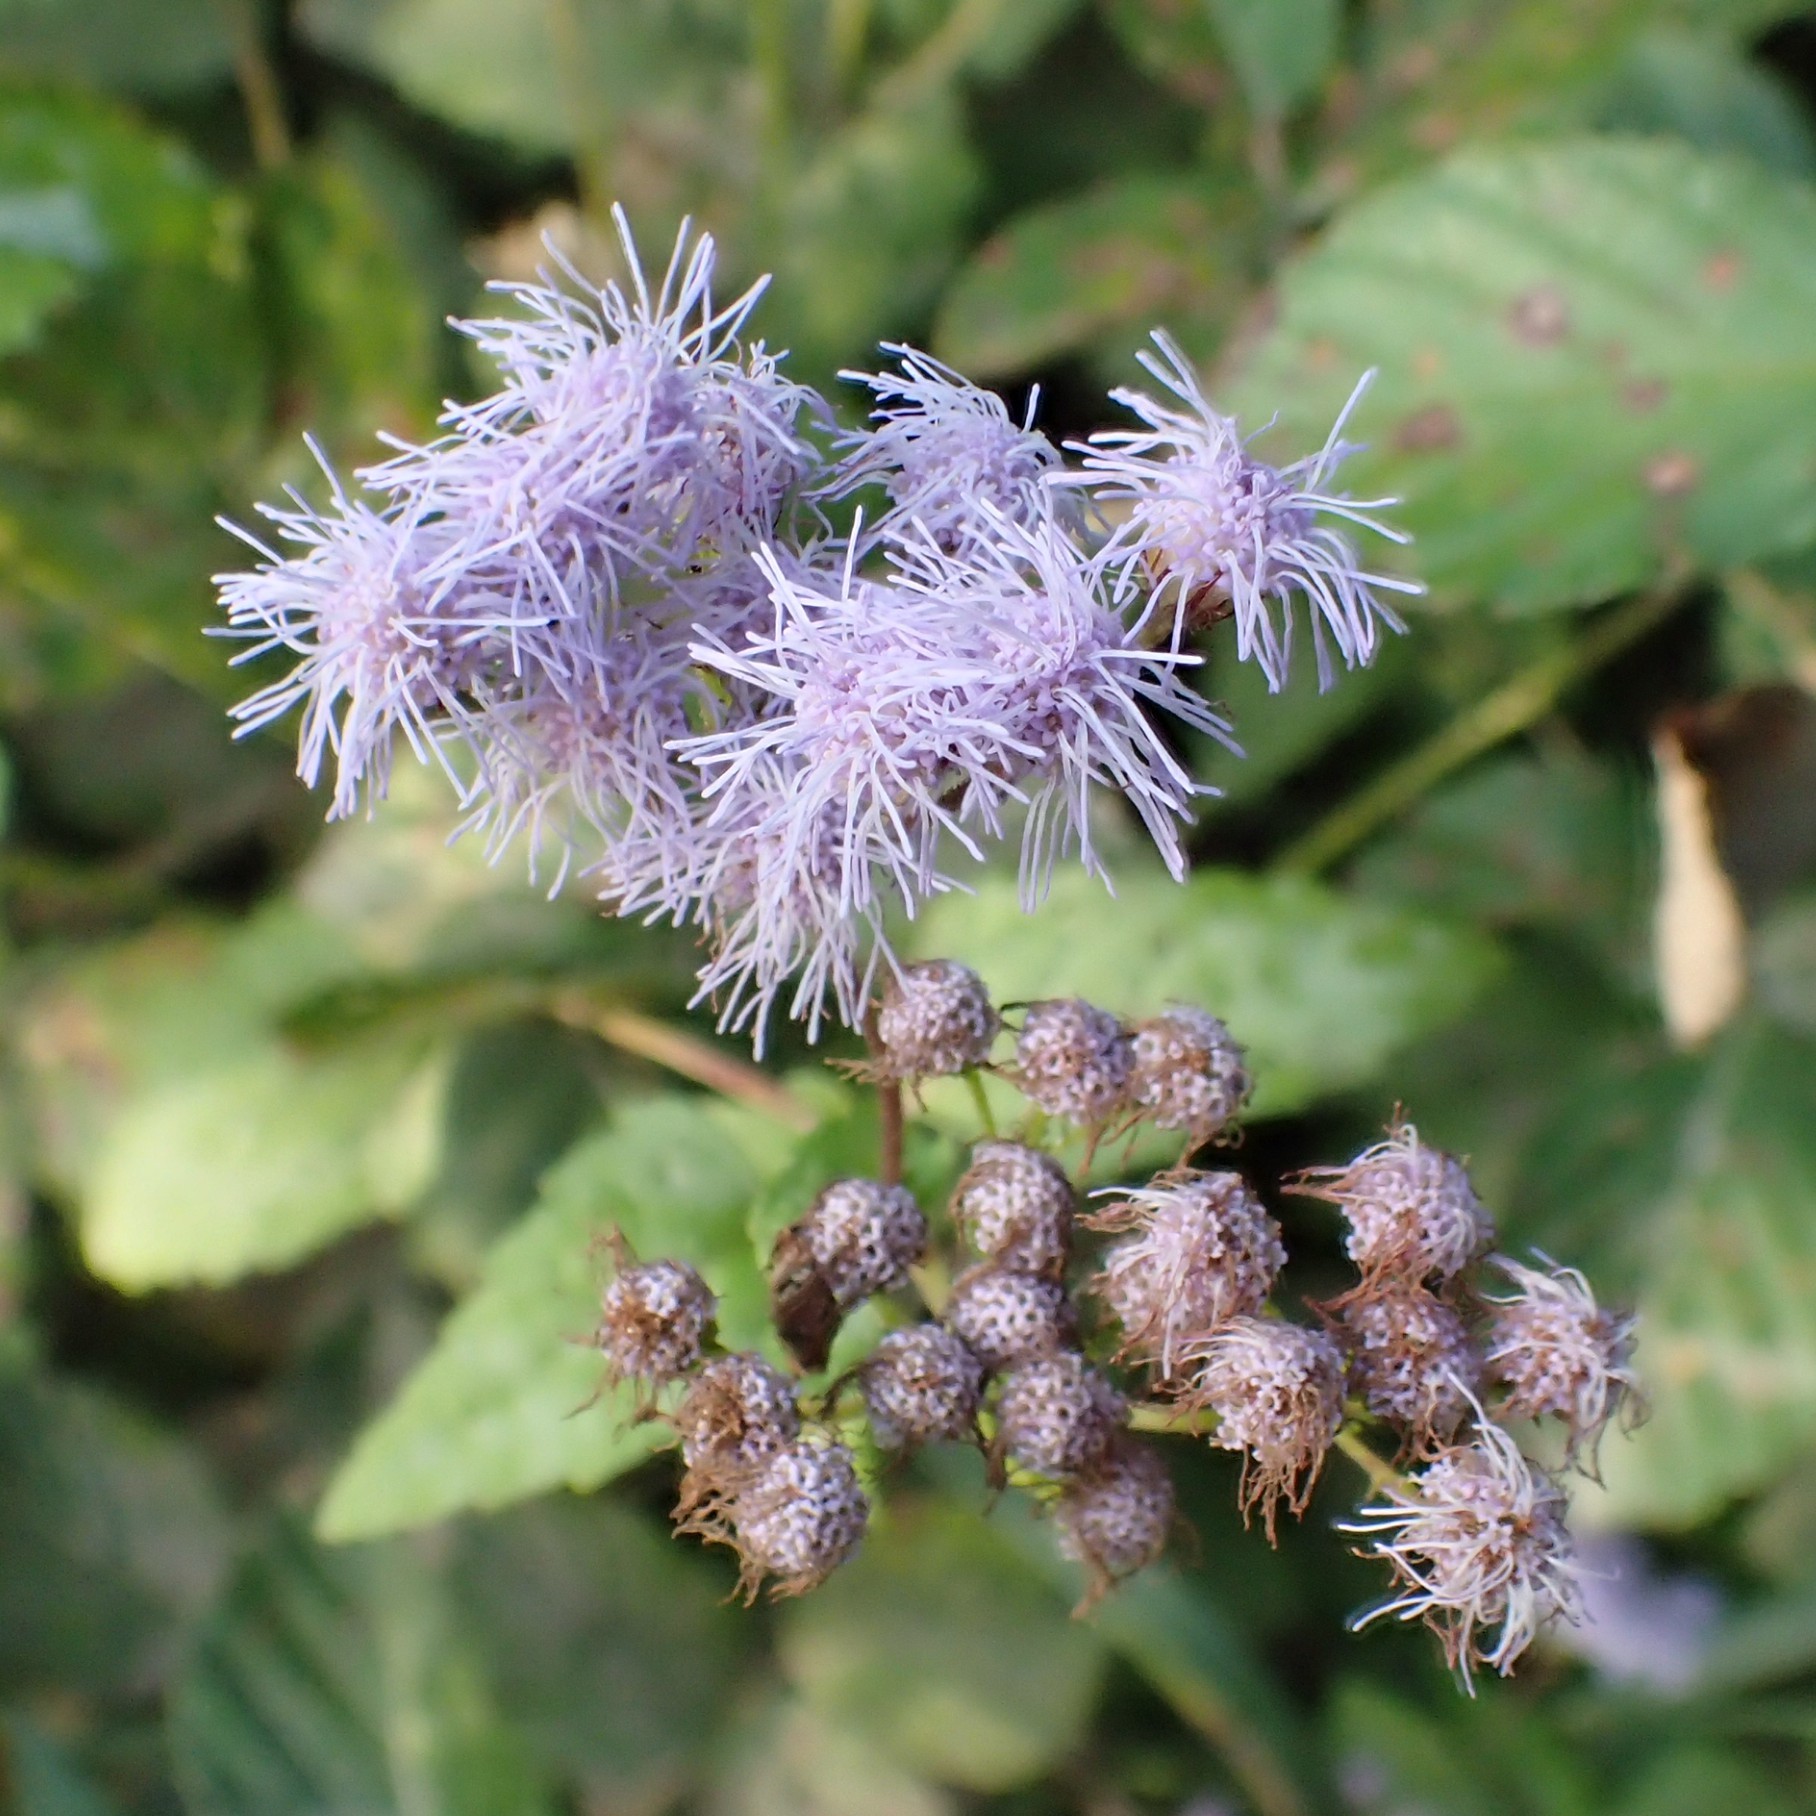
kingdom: Plantae
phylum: Tracheophyta
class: Magnoliopsida
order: Asterales
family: Asteraceae
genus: Conoclinium
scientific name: Conoclinium coelestinum
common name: Blue mistflower
